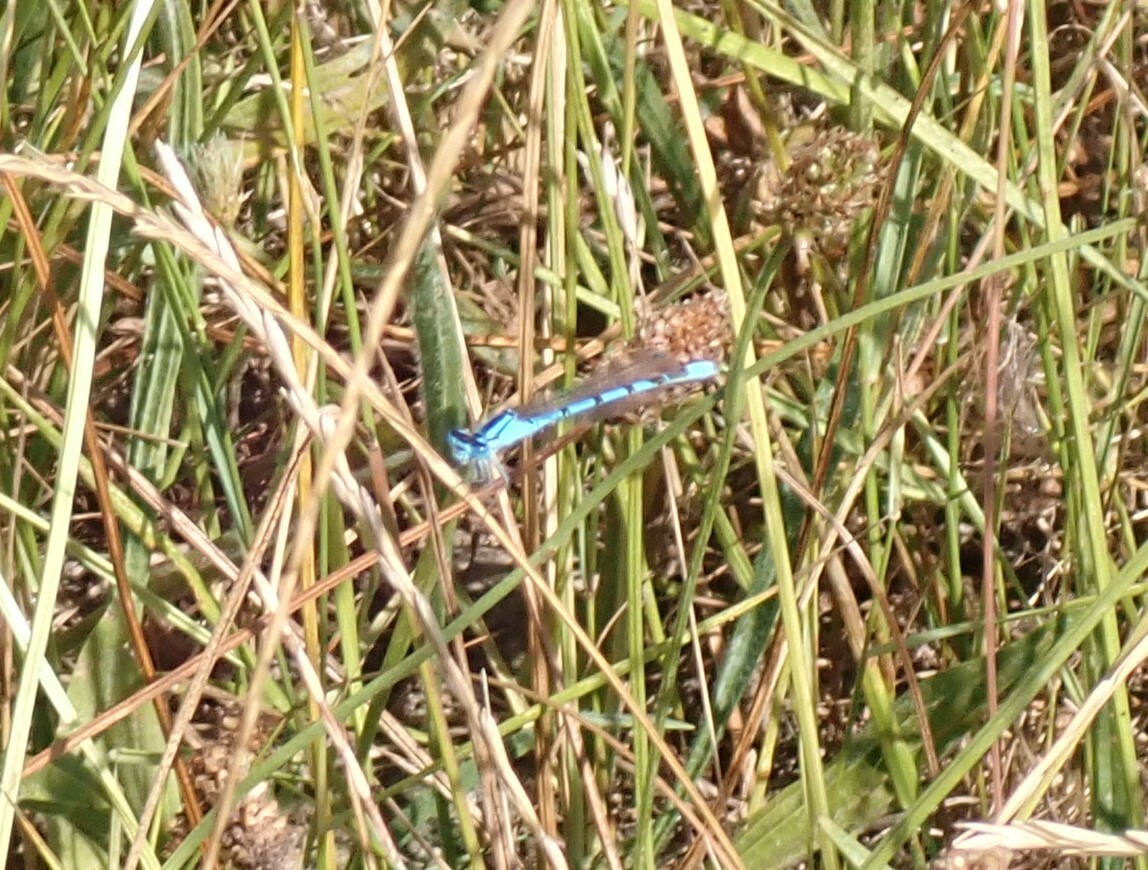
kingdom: Animalia
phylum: Arthropoda
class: Insecta
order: Odonata
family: Coenagrionidae
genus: Enallagma
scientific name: Enallagma cyathigerum
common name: Common blue damselfly
